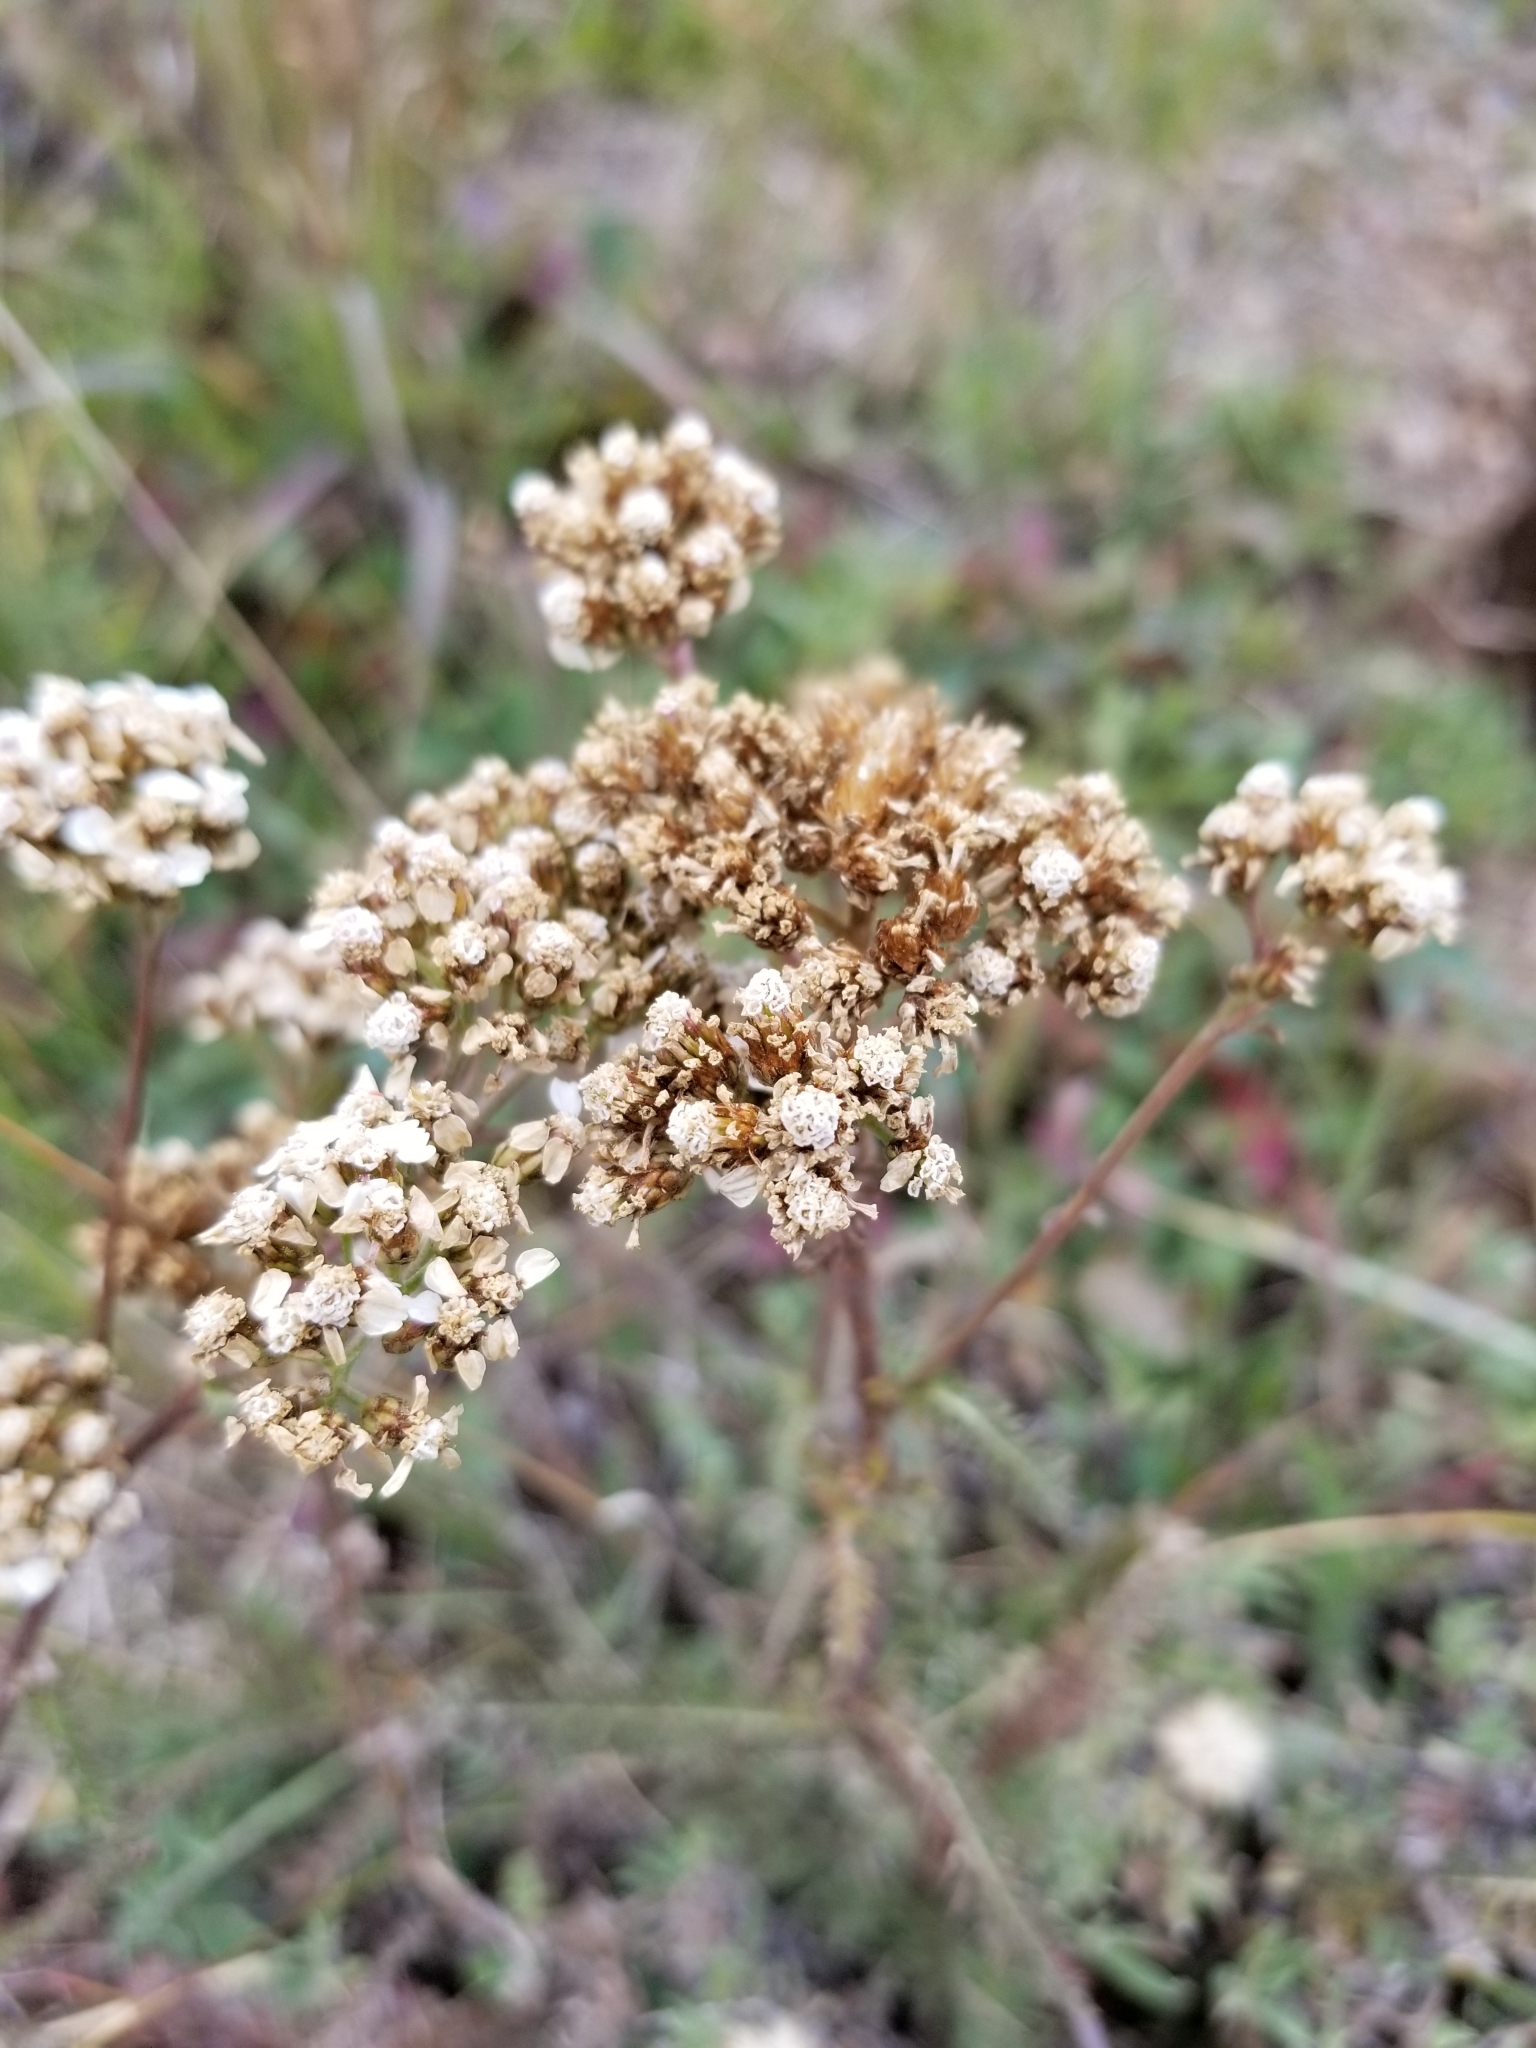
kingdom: Plantae
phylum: Tracheophyta
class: Magnoliopsida
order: Asterales
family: Asteraceae
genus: Achillea
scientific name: Achillea millefolium
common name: Yarrow
